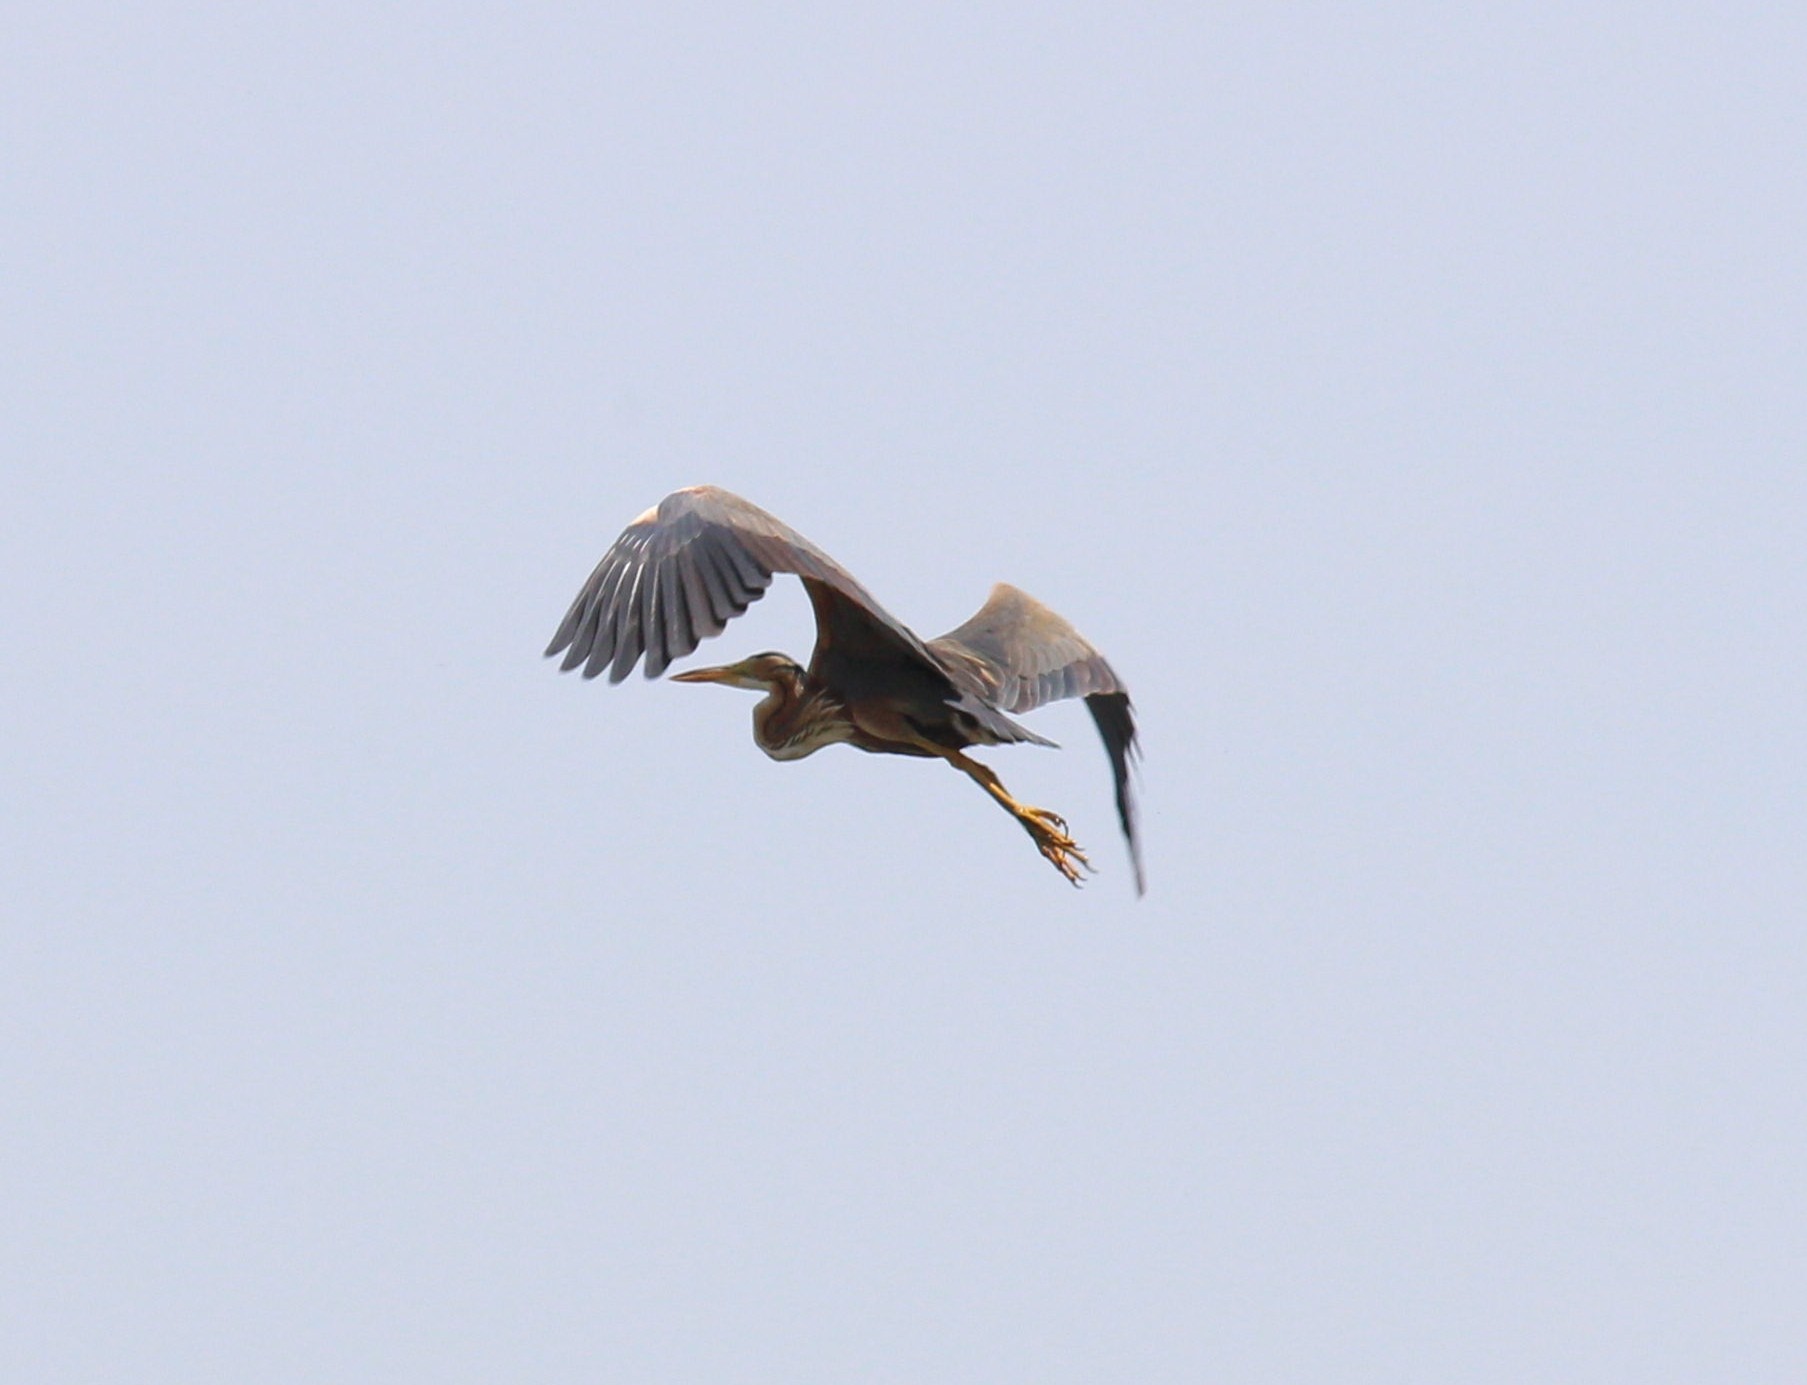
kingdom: Animalia
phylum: Chordata
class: Aves
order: Pelecaniformes
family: Ardeidae
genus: Ardea
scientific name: Ardea purpurea
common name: Purple heron
